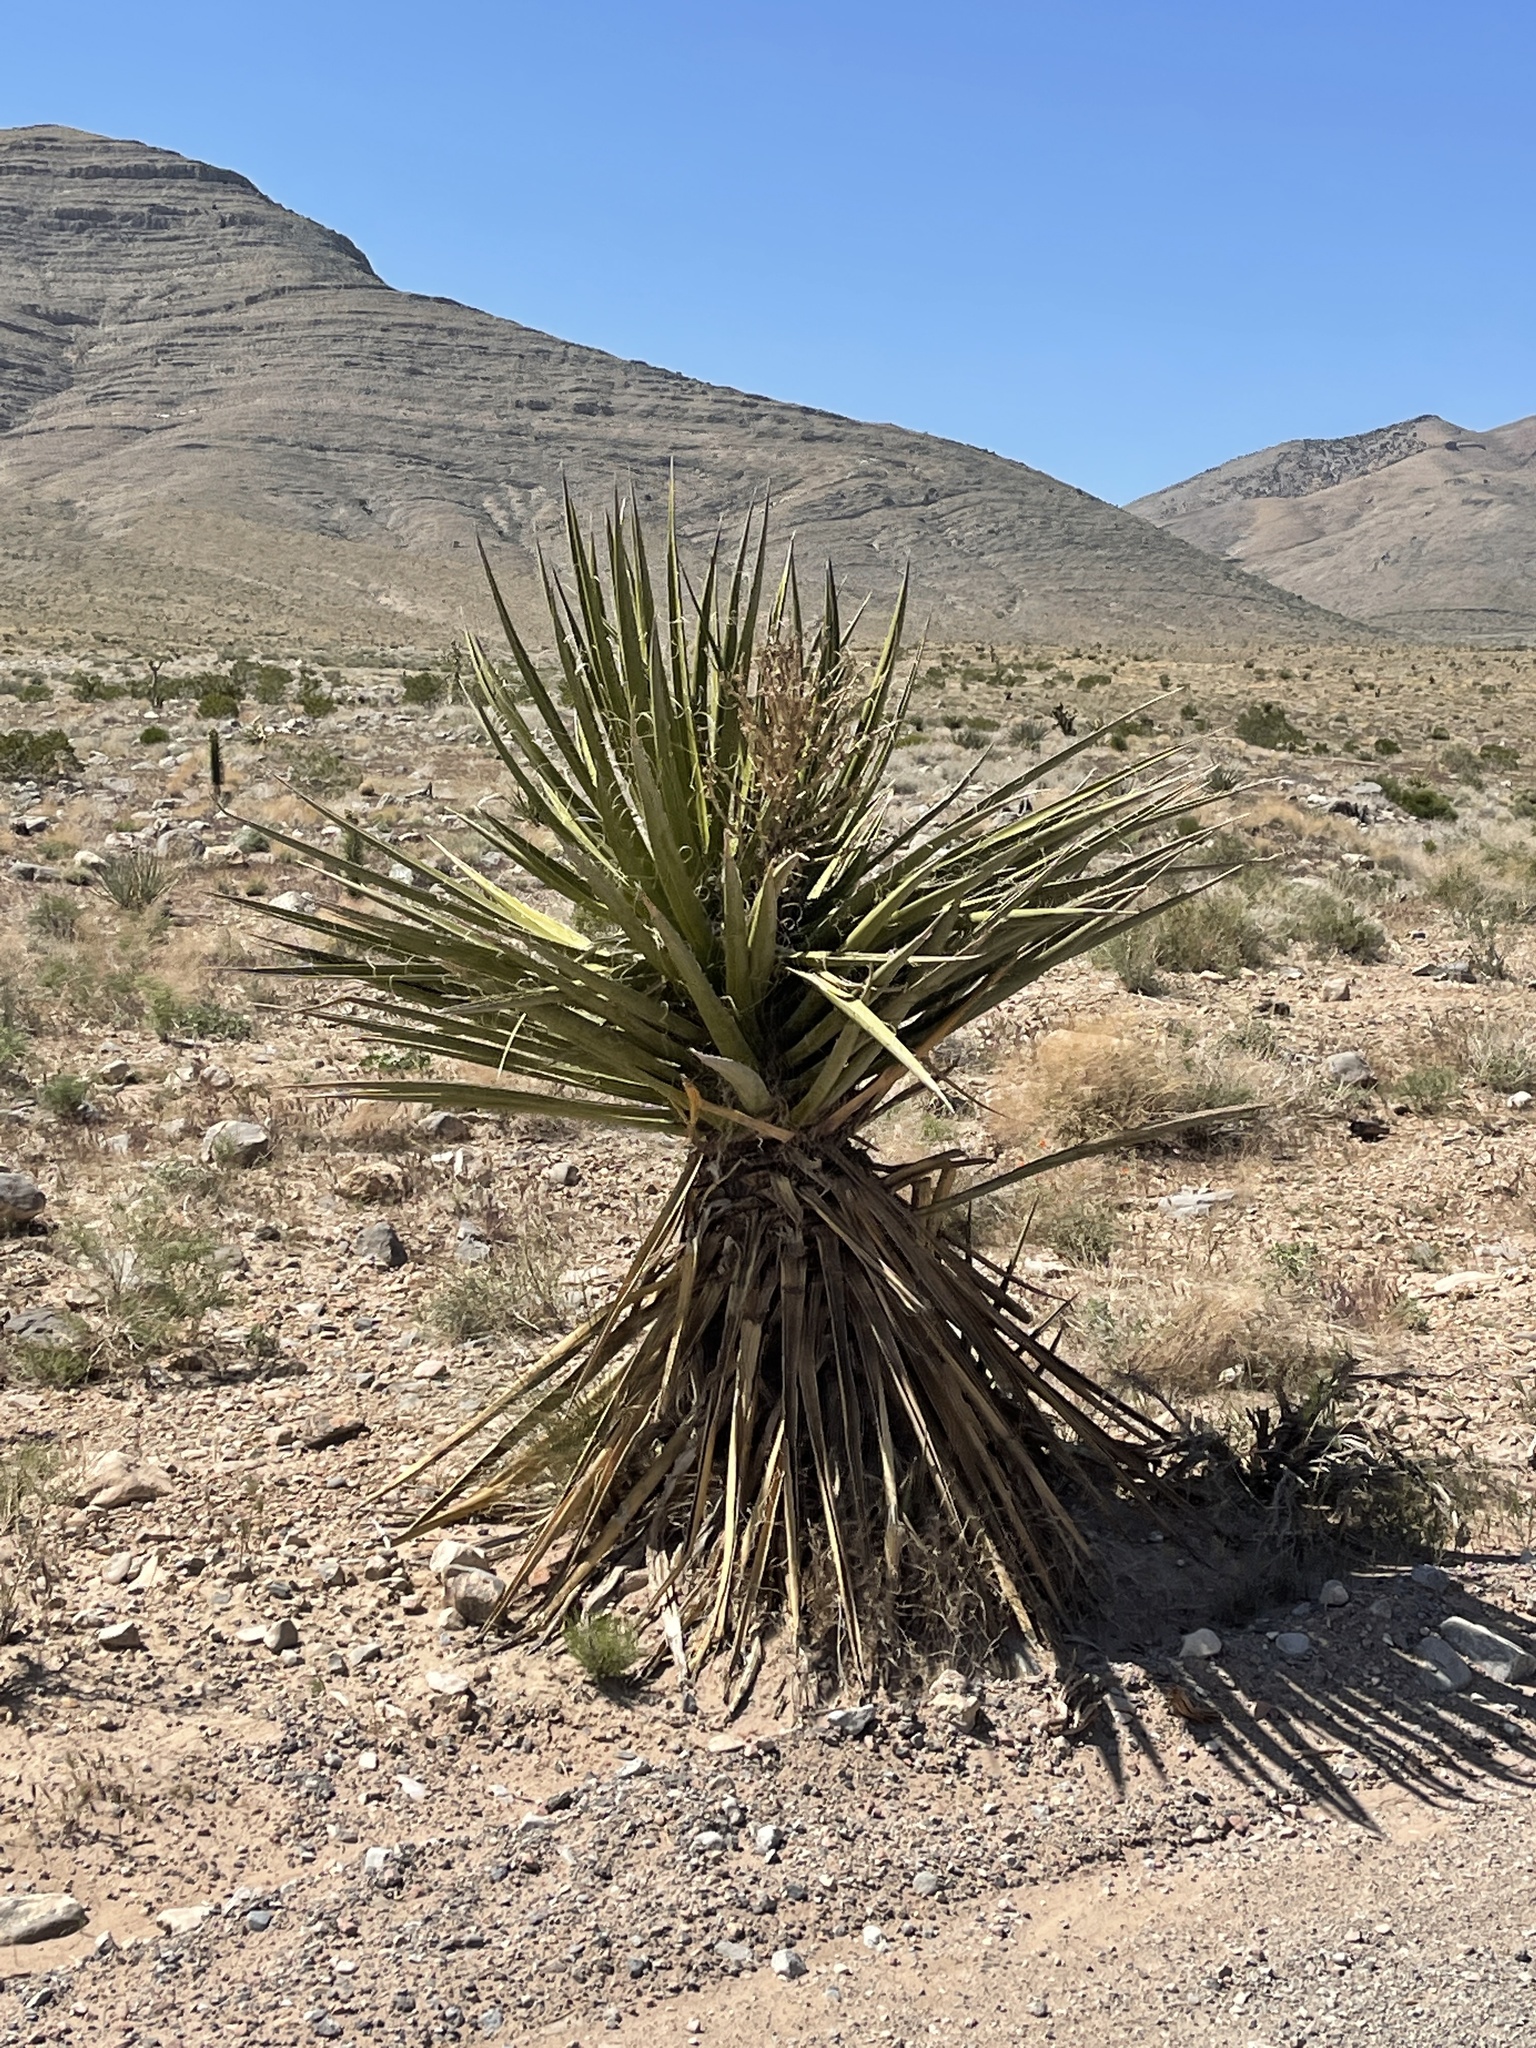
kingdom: Plantae
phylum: Tracheophyta
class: Liliopsida
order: Asparagales
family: Asparagaceae
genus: Yucca
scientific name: Yucca schidigera
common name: Mojave yucca
